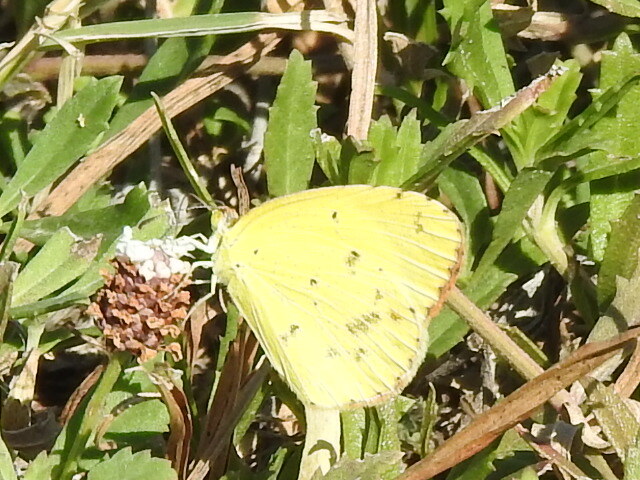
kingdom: Animalia
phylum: Arthropoda
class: Insecta
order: Lepidoptera
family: Pieridae
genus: Pyrisitia
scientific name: Pyrisitia lisa
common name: Little yellow
